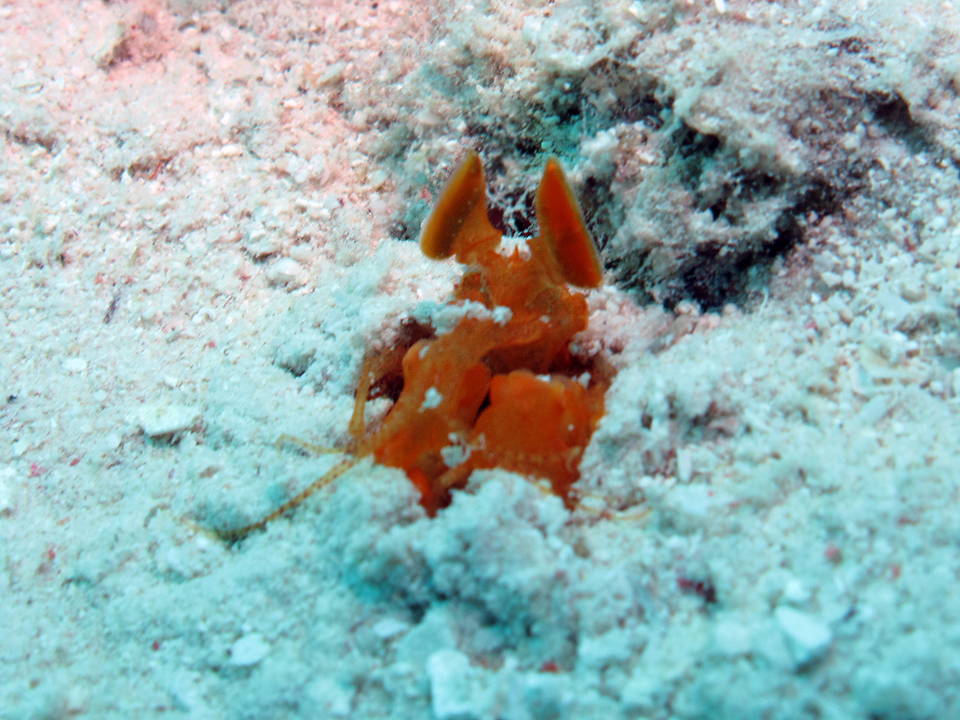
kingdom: Animalia
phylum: Arthropoda
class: Malacostraca
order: Stomatopoda
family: Lysiosquillidae
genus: Lysiosquilloides
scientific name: Lysiosquilloides mapia
